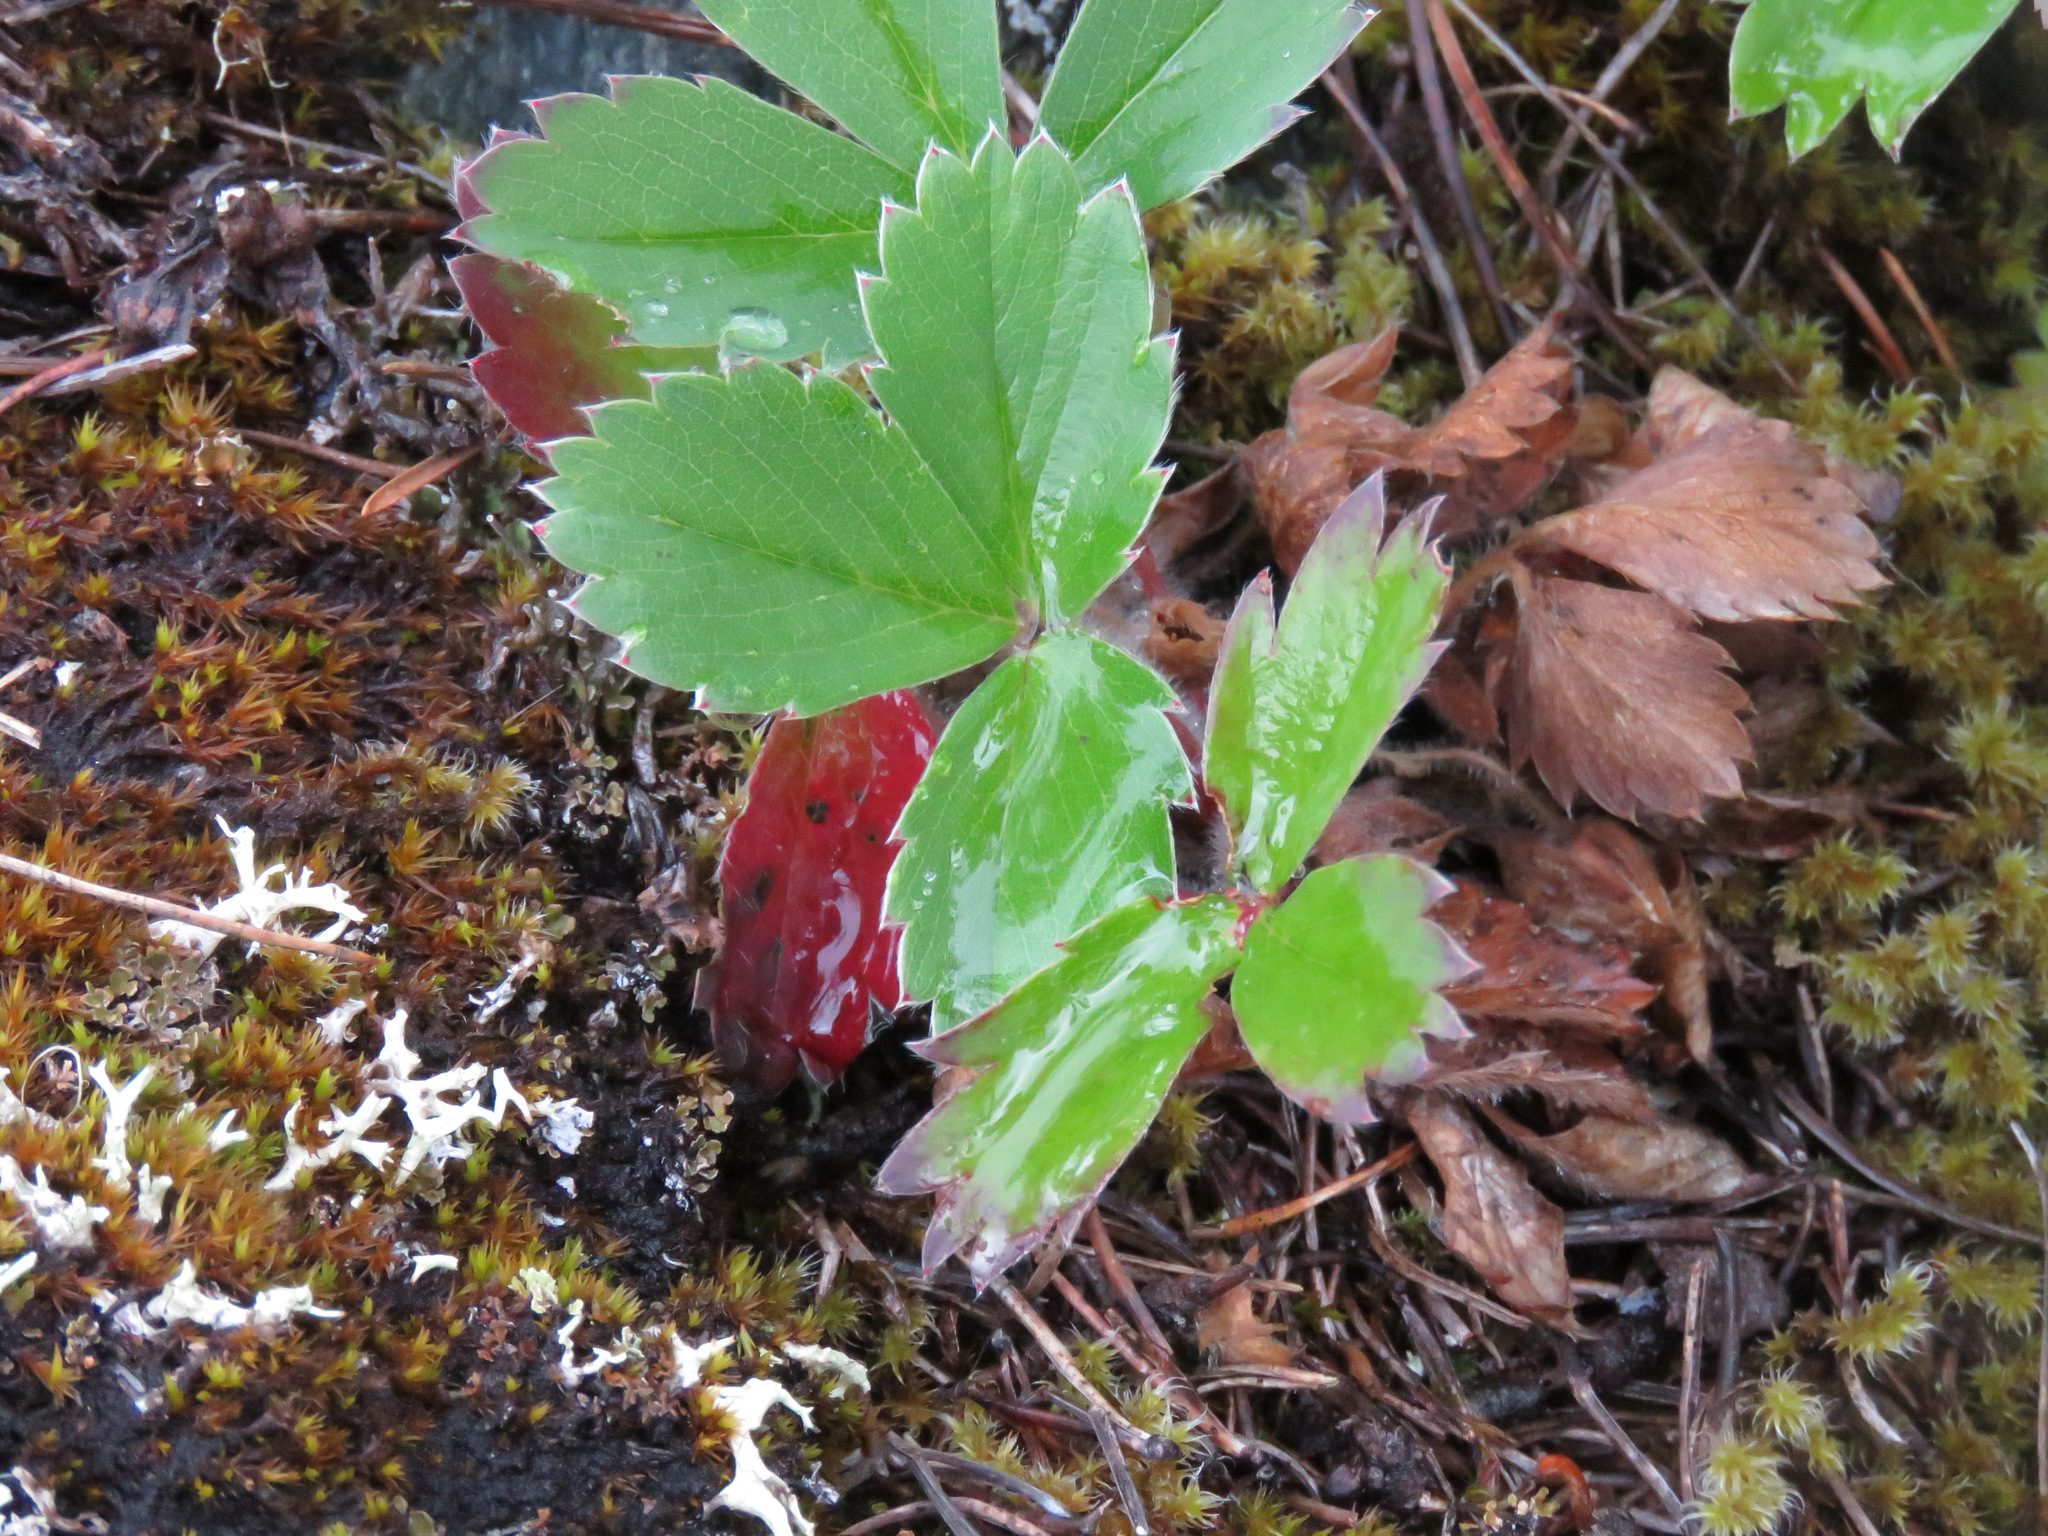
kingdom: Plantae
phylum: Tracheophyta
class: Magnoliopsida
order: Rosales
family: Rosaceae
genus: Fragaria
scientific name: Fragaria virginiana
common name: Thickleaved wild strawberry
